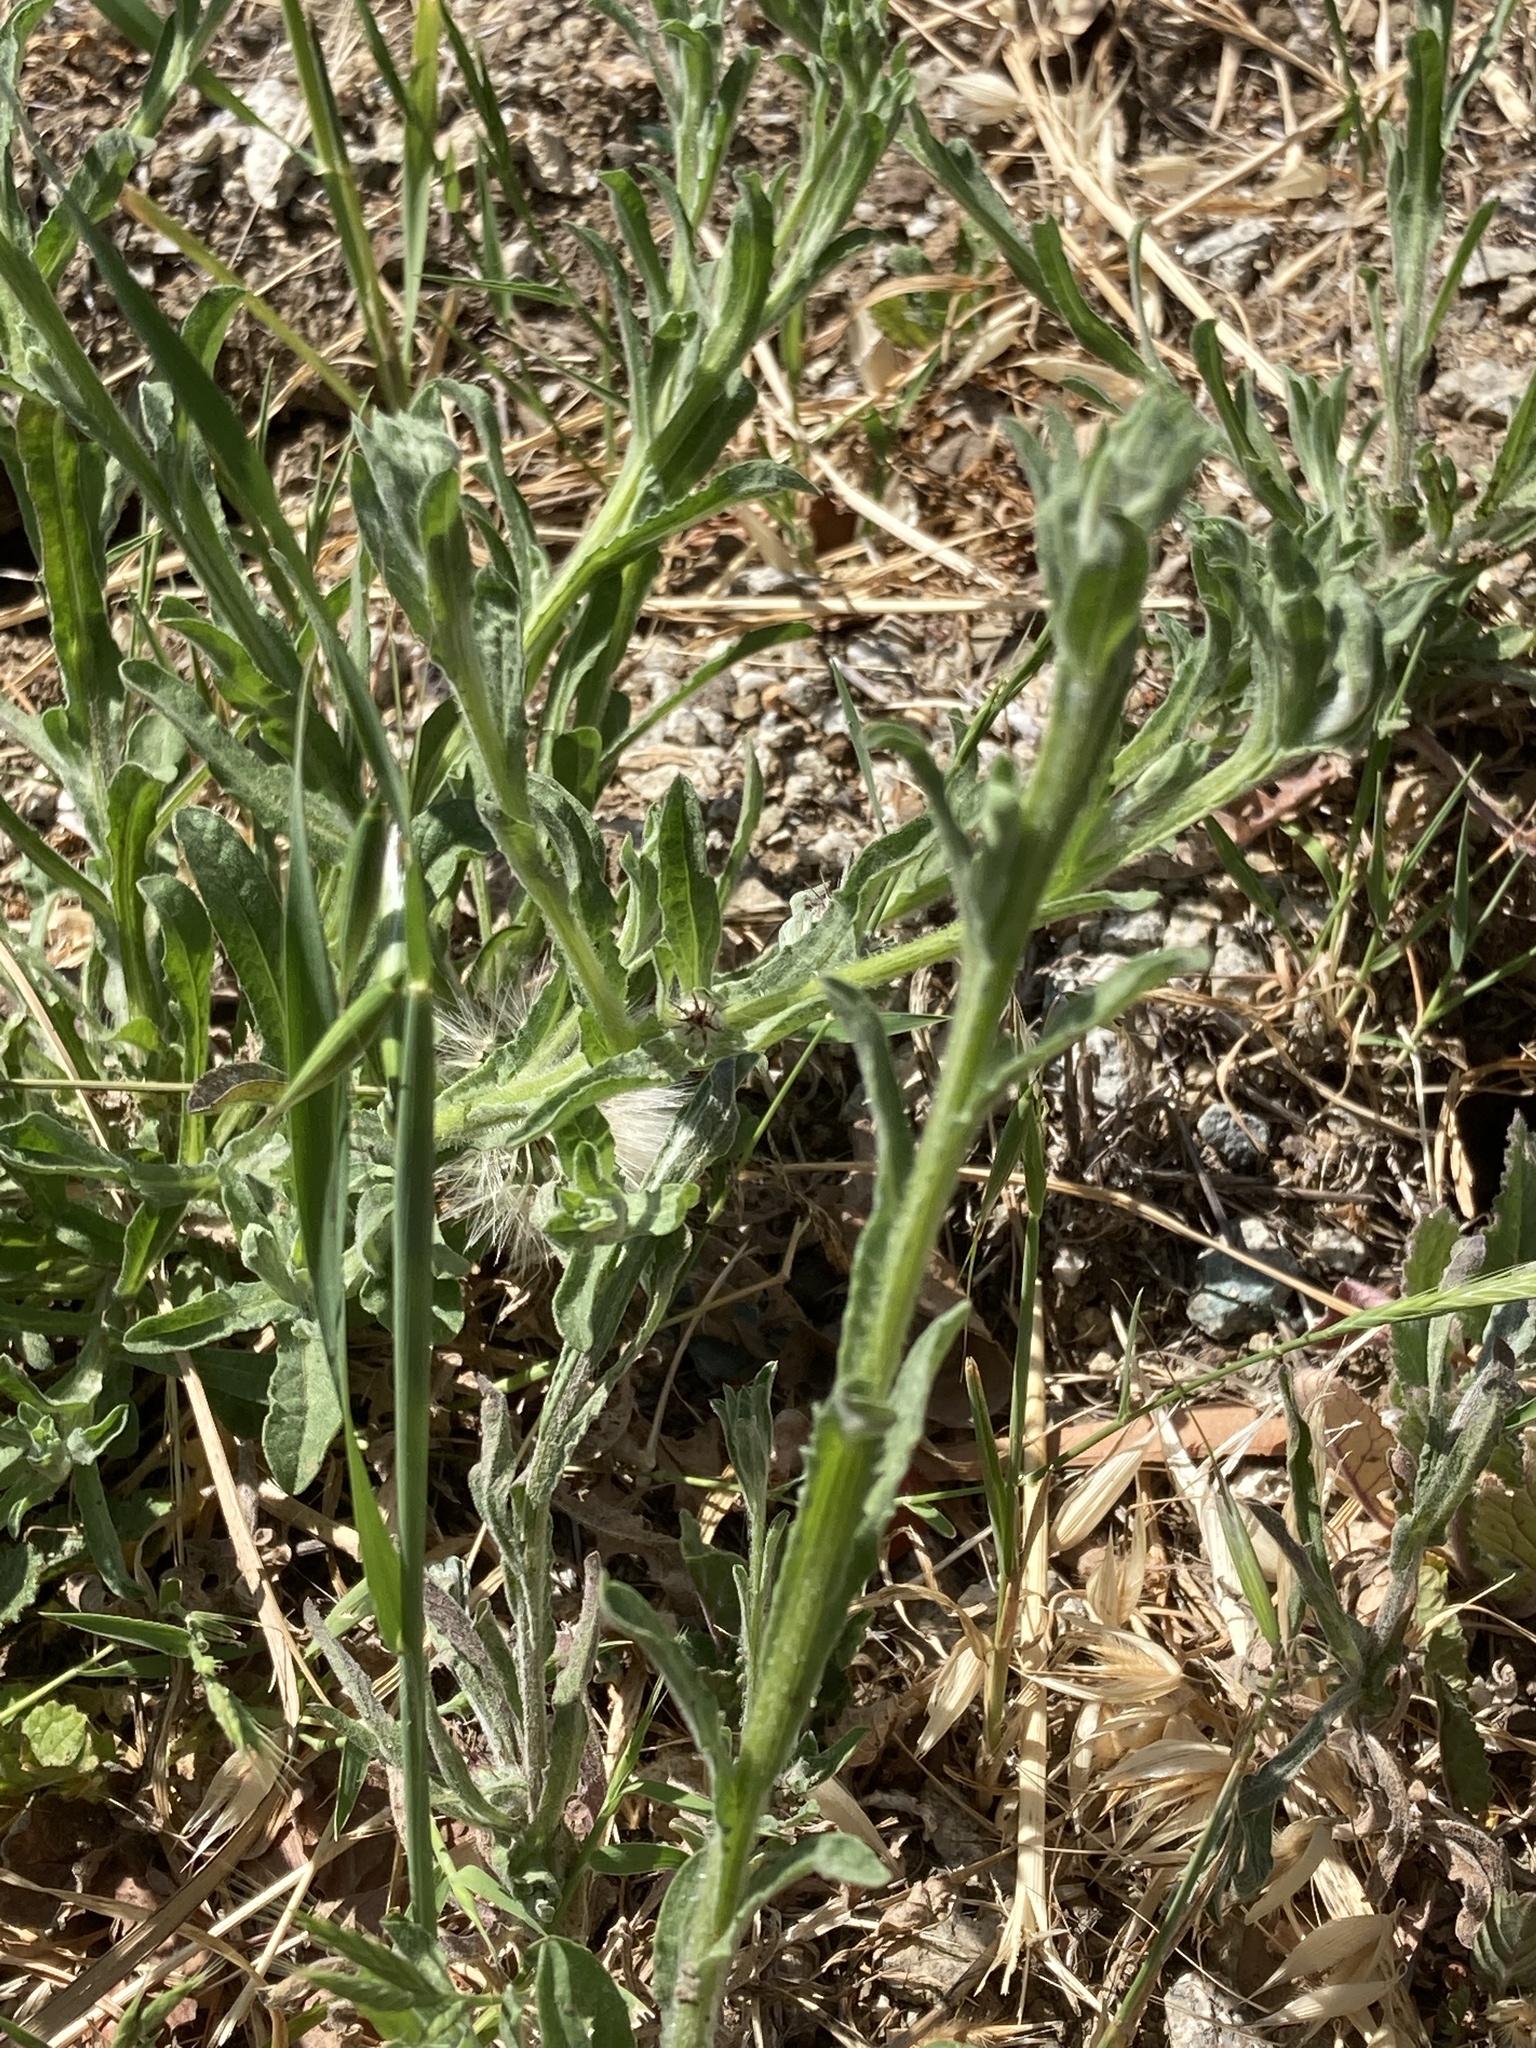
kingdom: Plantae
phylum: Tracheophyta
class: Magnoliopsida
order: Asterales
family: Asteraceae
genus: Centaurea
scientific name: Centaurea melitensis
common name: Maltese star-thistle
